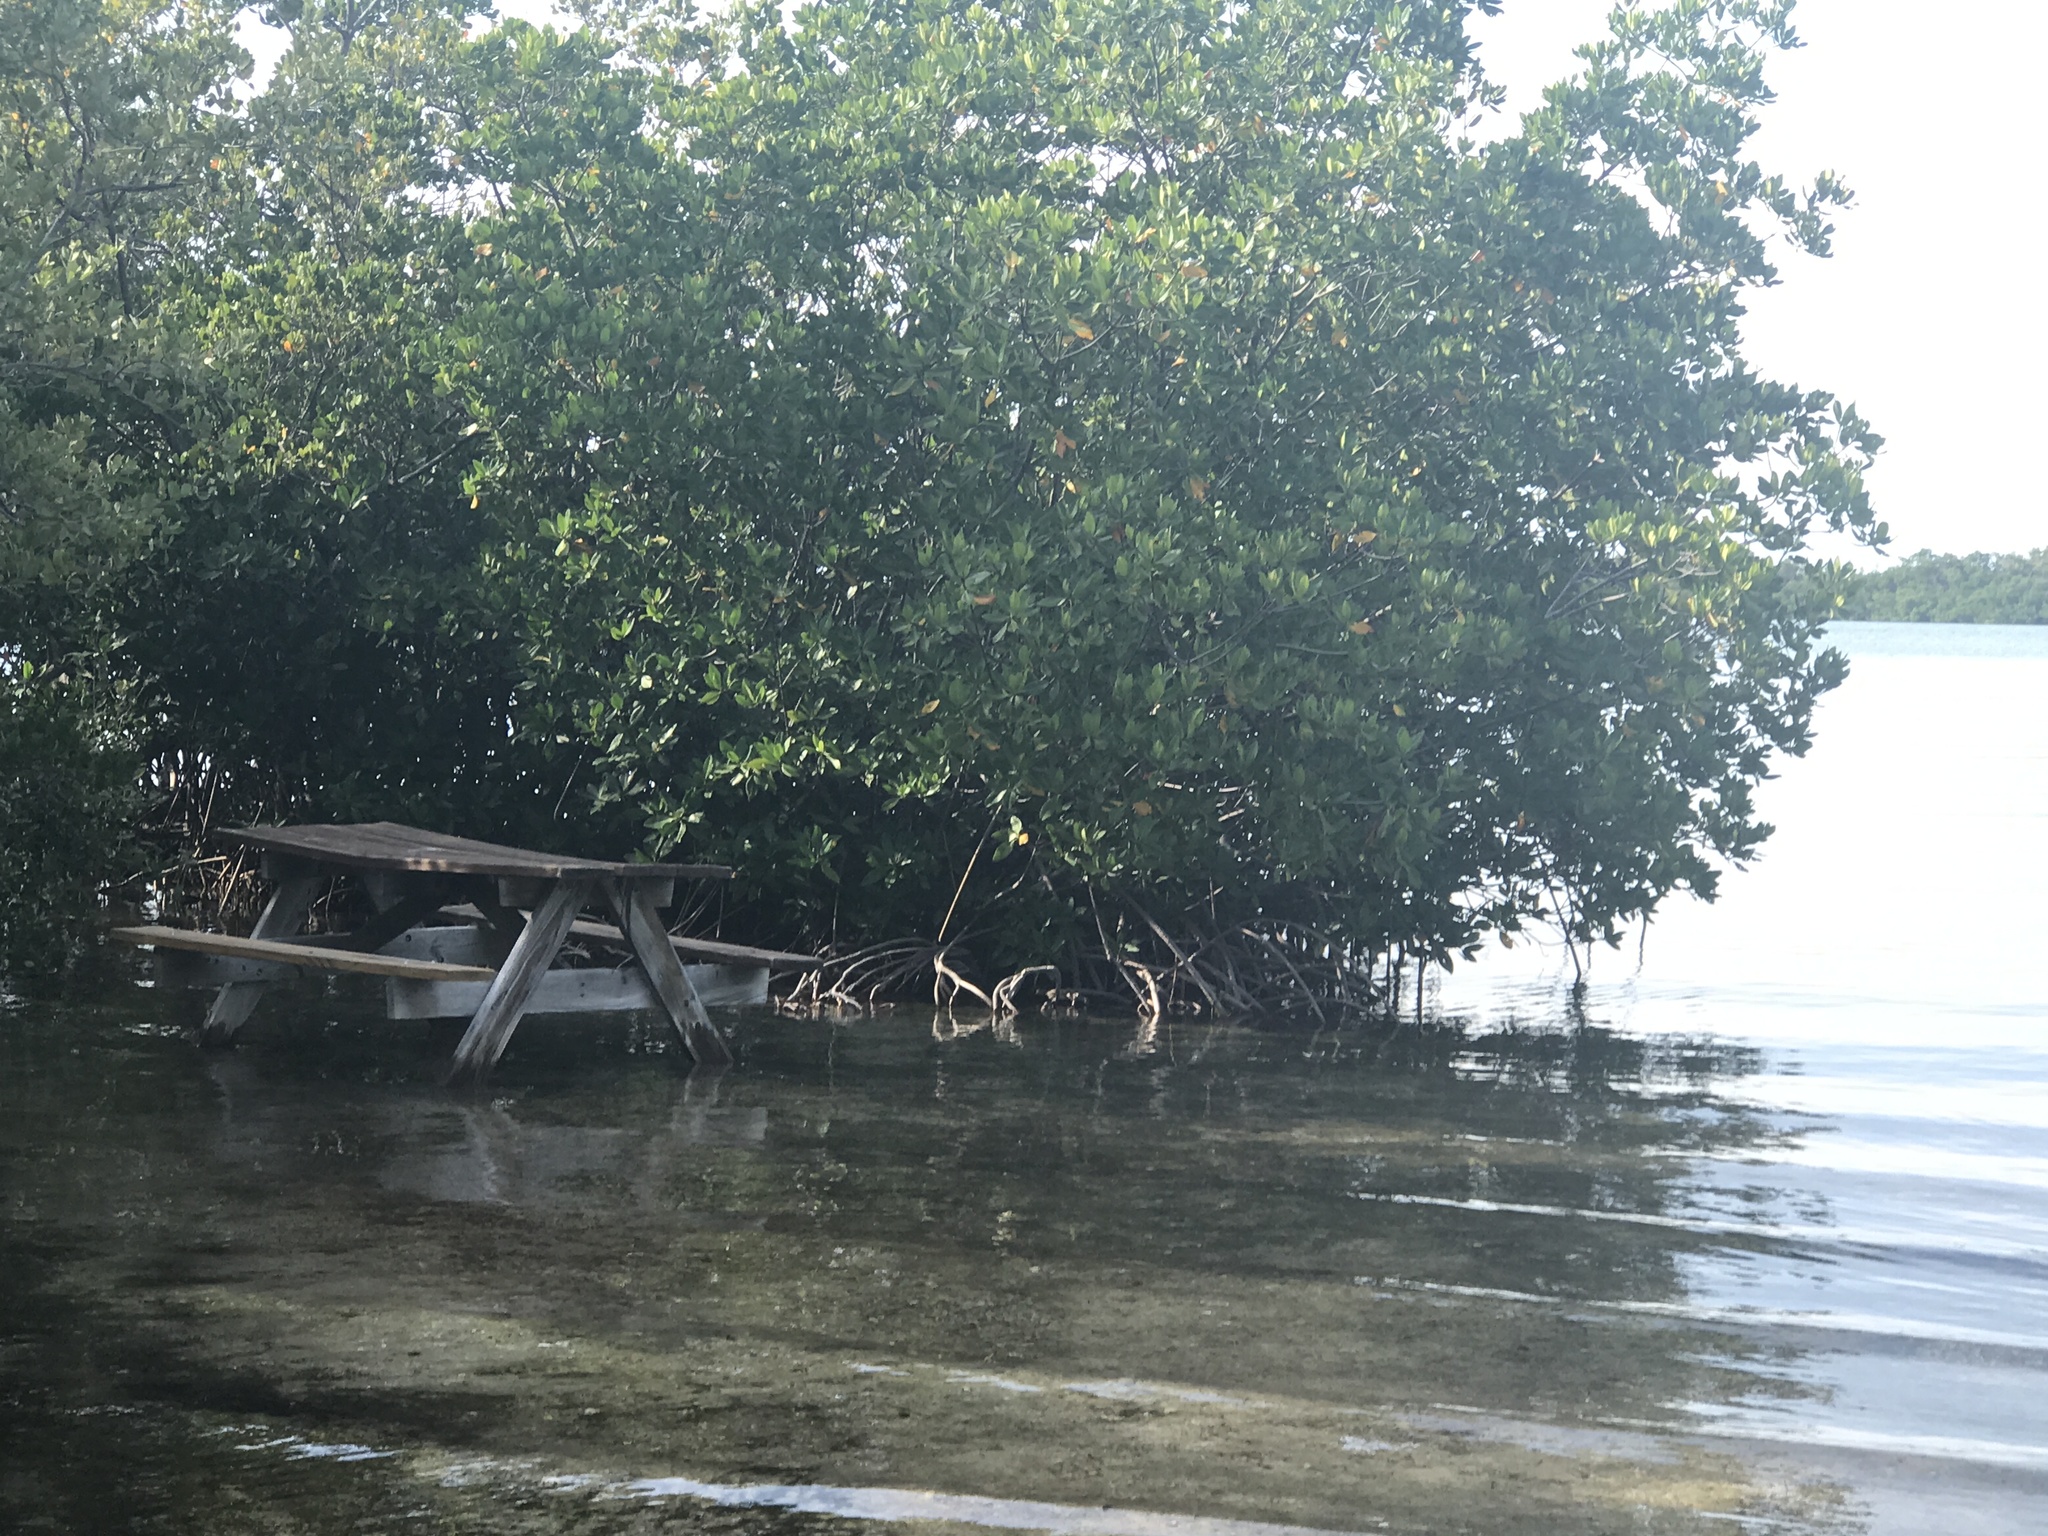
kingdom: Plantae
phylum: Tracheophyta
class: Magnoliopsida
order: Malpighiales
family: Rhizophoraceae
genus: Rhizophora
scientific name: Rhizophora mangle
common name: Red mangrove
